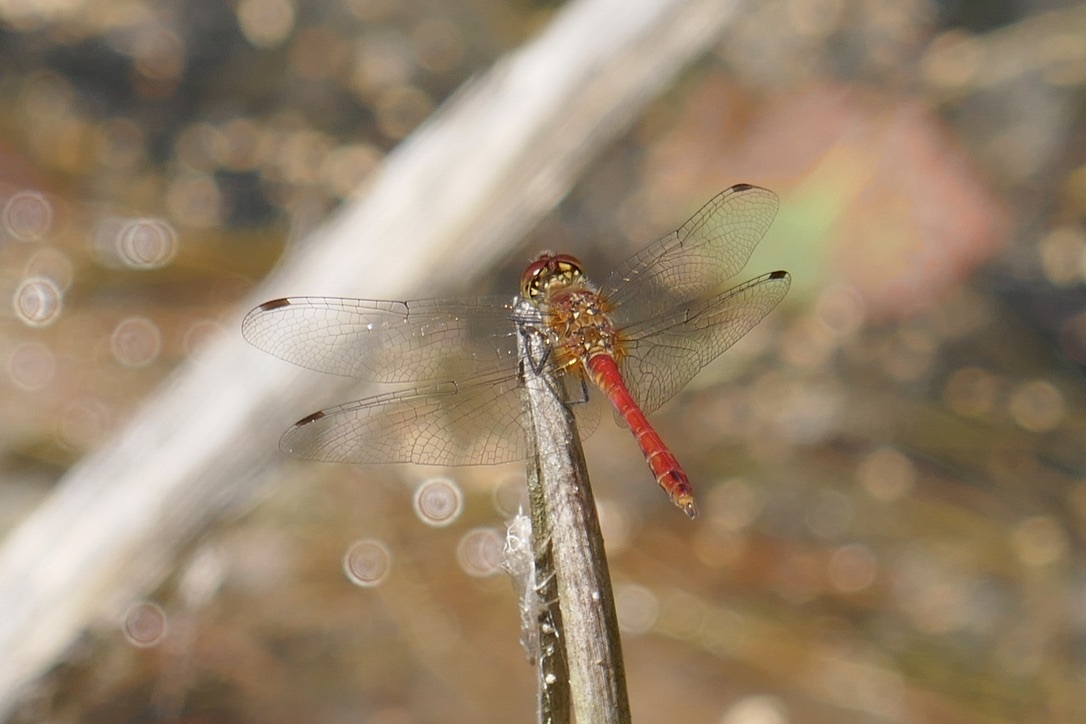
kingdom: Animalia
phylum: Arthropoda
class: Insecta
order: Odonata
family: Libellulidae
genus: Sympetrum
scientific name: Sympetrum sanguineum
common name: Ruddy darter
